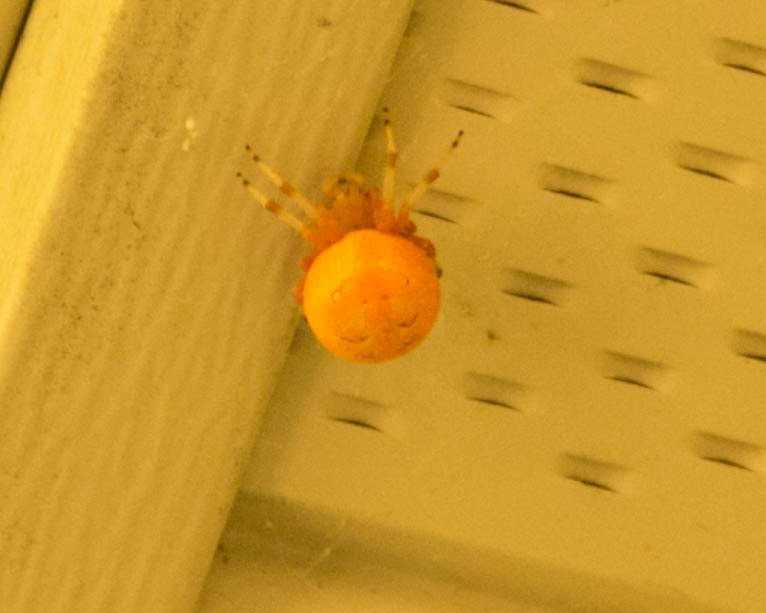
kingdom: Animalia
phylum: Arthropoda
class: Arachnida
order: Araneae
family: Araneidae
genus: Araneus
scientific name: Araneus marmoreus
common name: Marbled orbweaver
